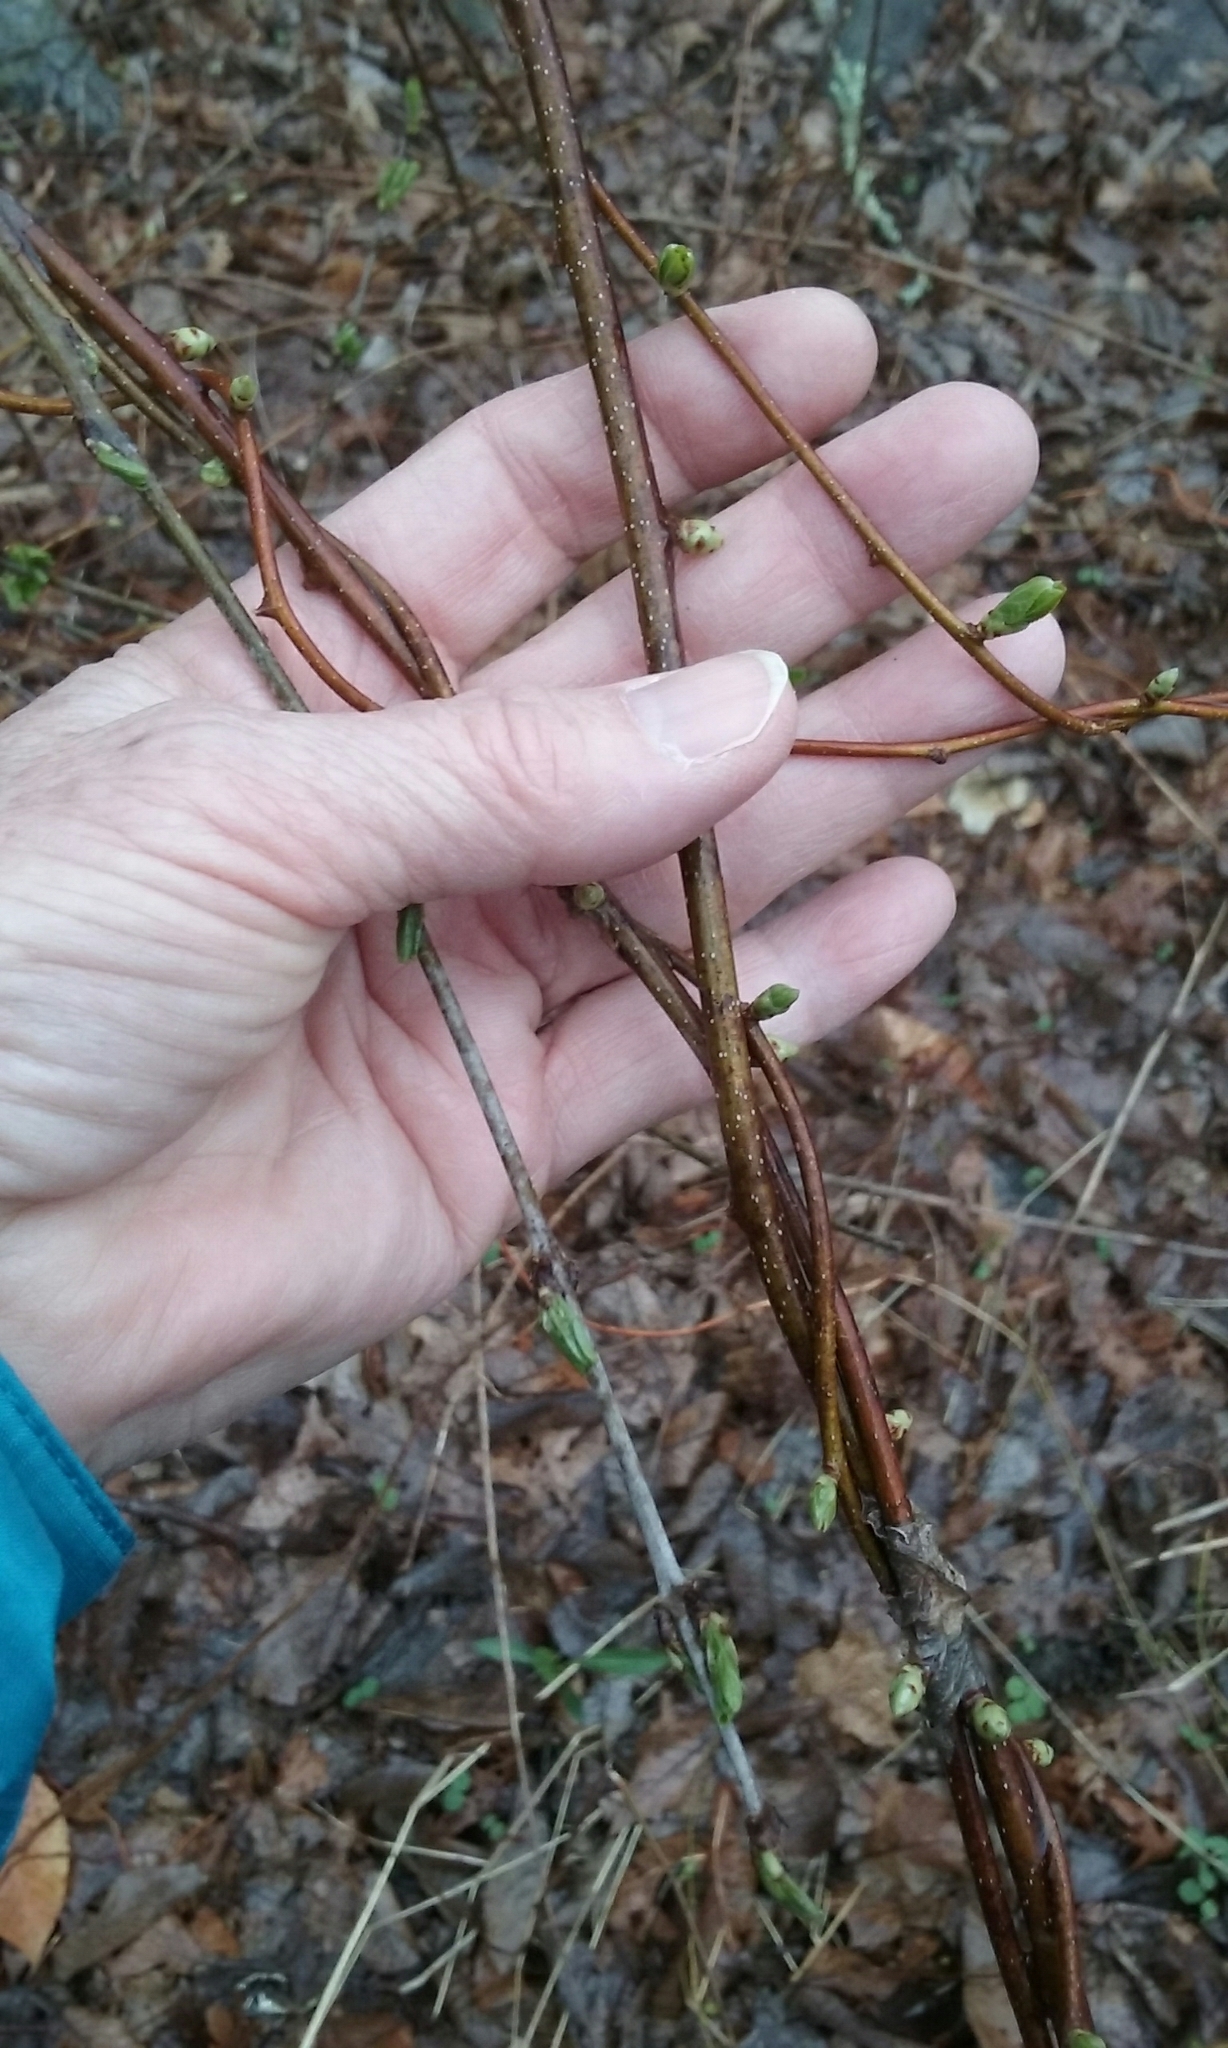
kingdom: Plantae
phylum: Tracheophyta
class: Magnoliopsida
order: Celastrales
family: Celastraceae
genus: Celastrus
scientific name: Celastrus orbiculatus
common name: Oriental bittersweet
